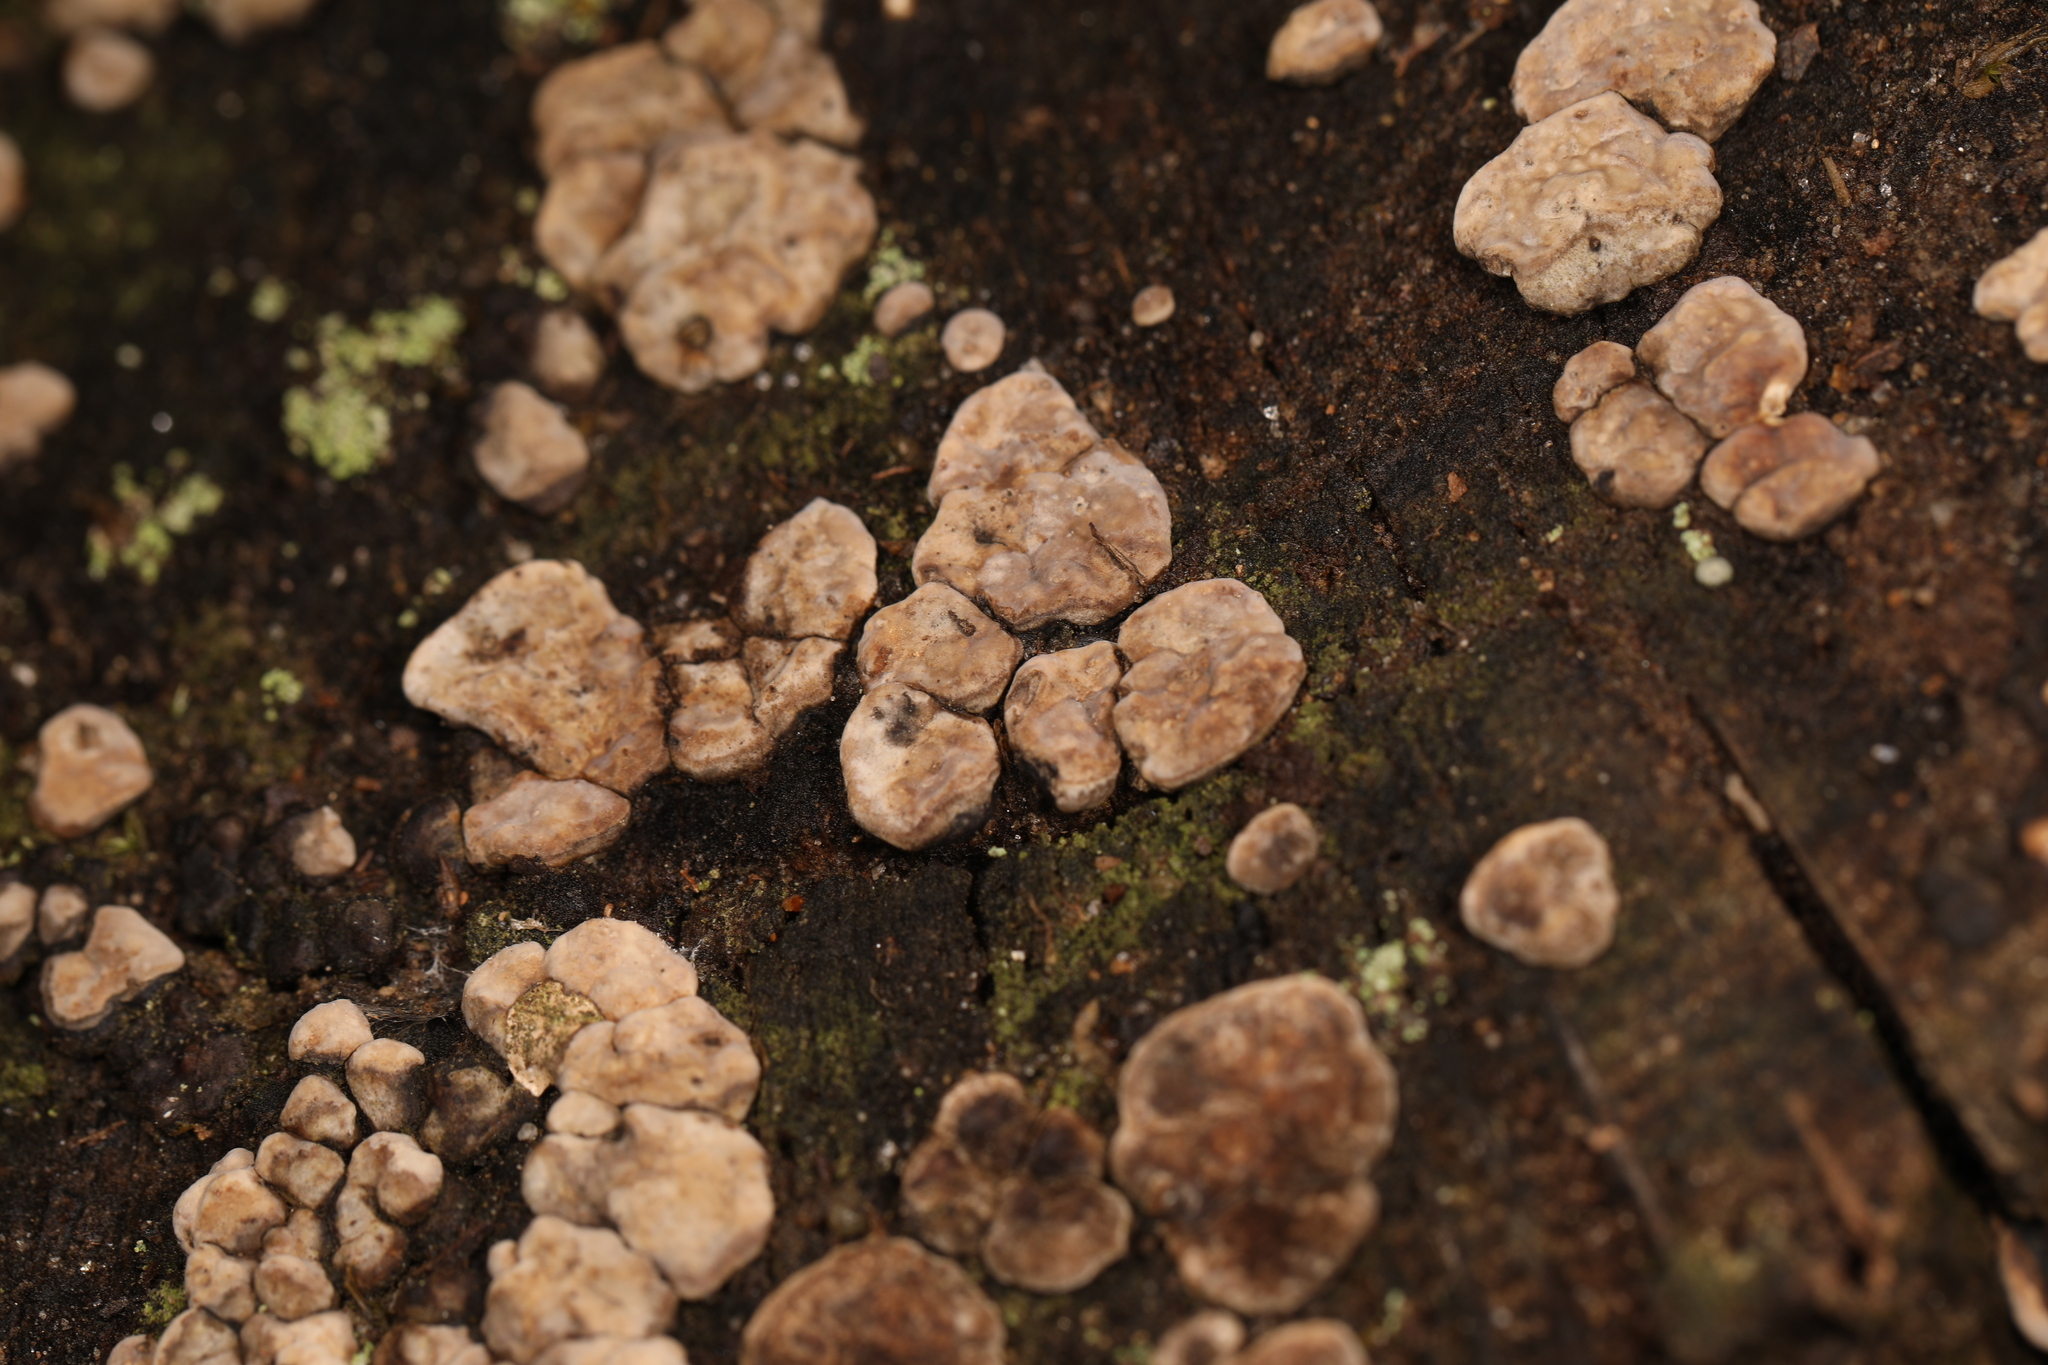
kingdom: Fungi
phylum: Basidiomycota
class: Agaricomycetes
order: Russulales
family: Stereaceae
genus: Xylobolus
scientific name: Xylobolus frustulatus
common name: Ceramic parchment
